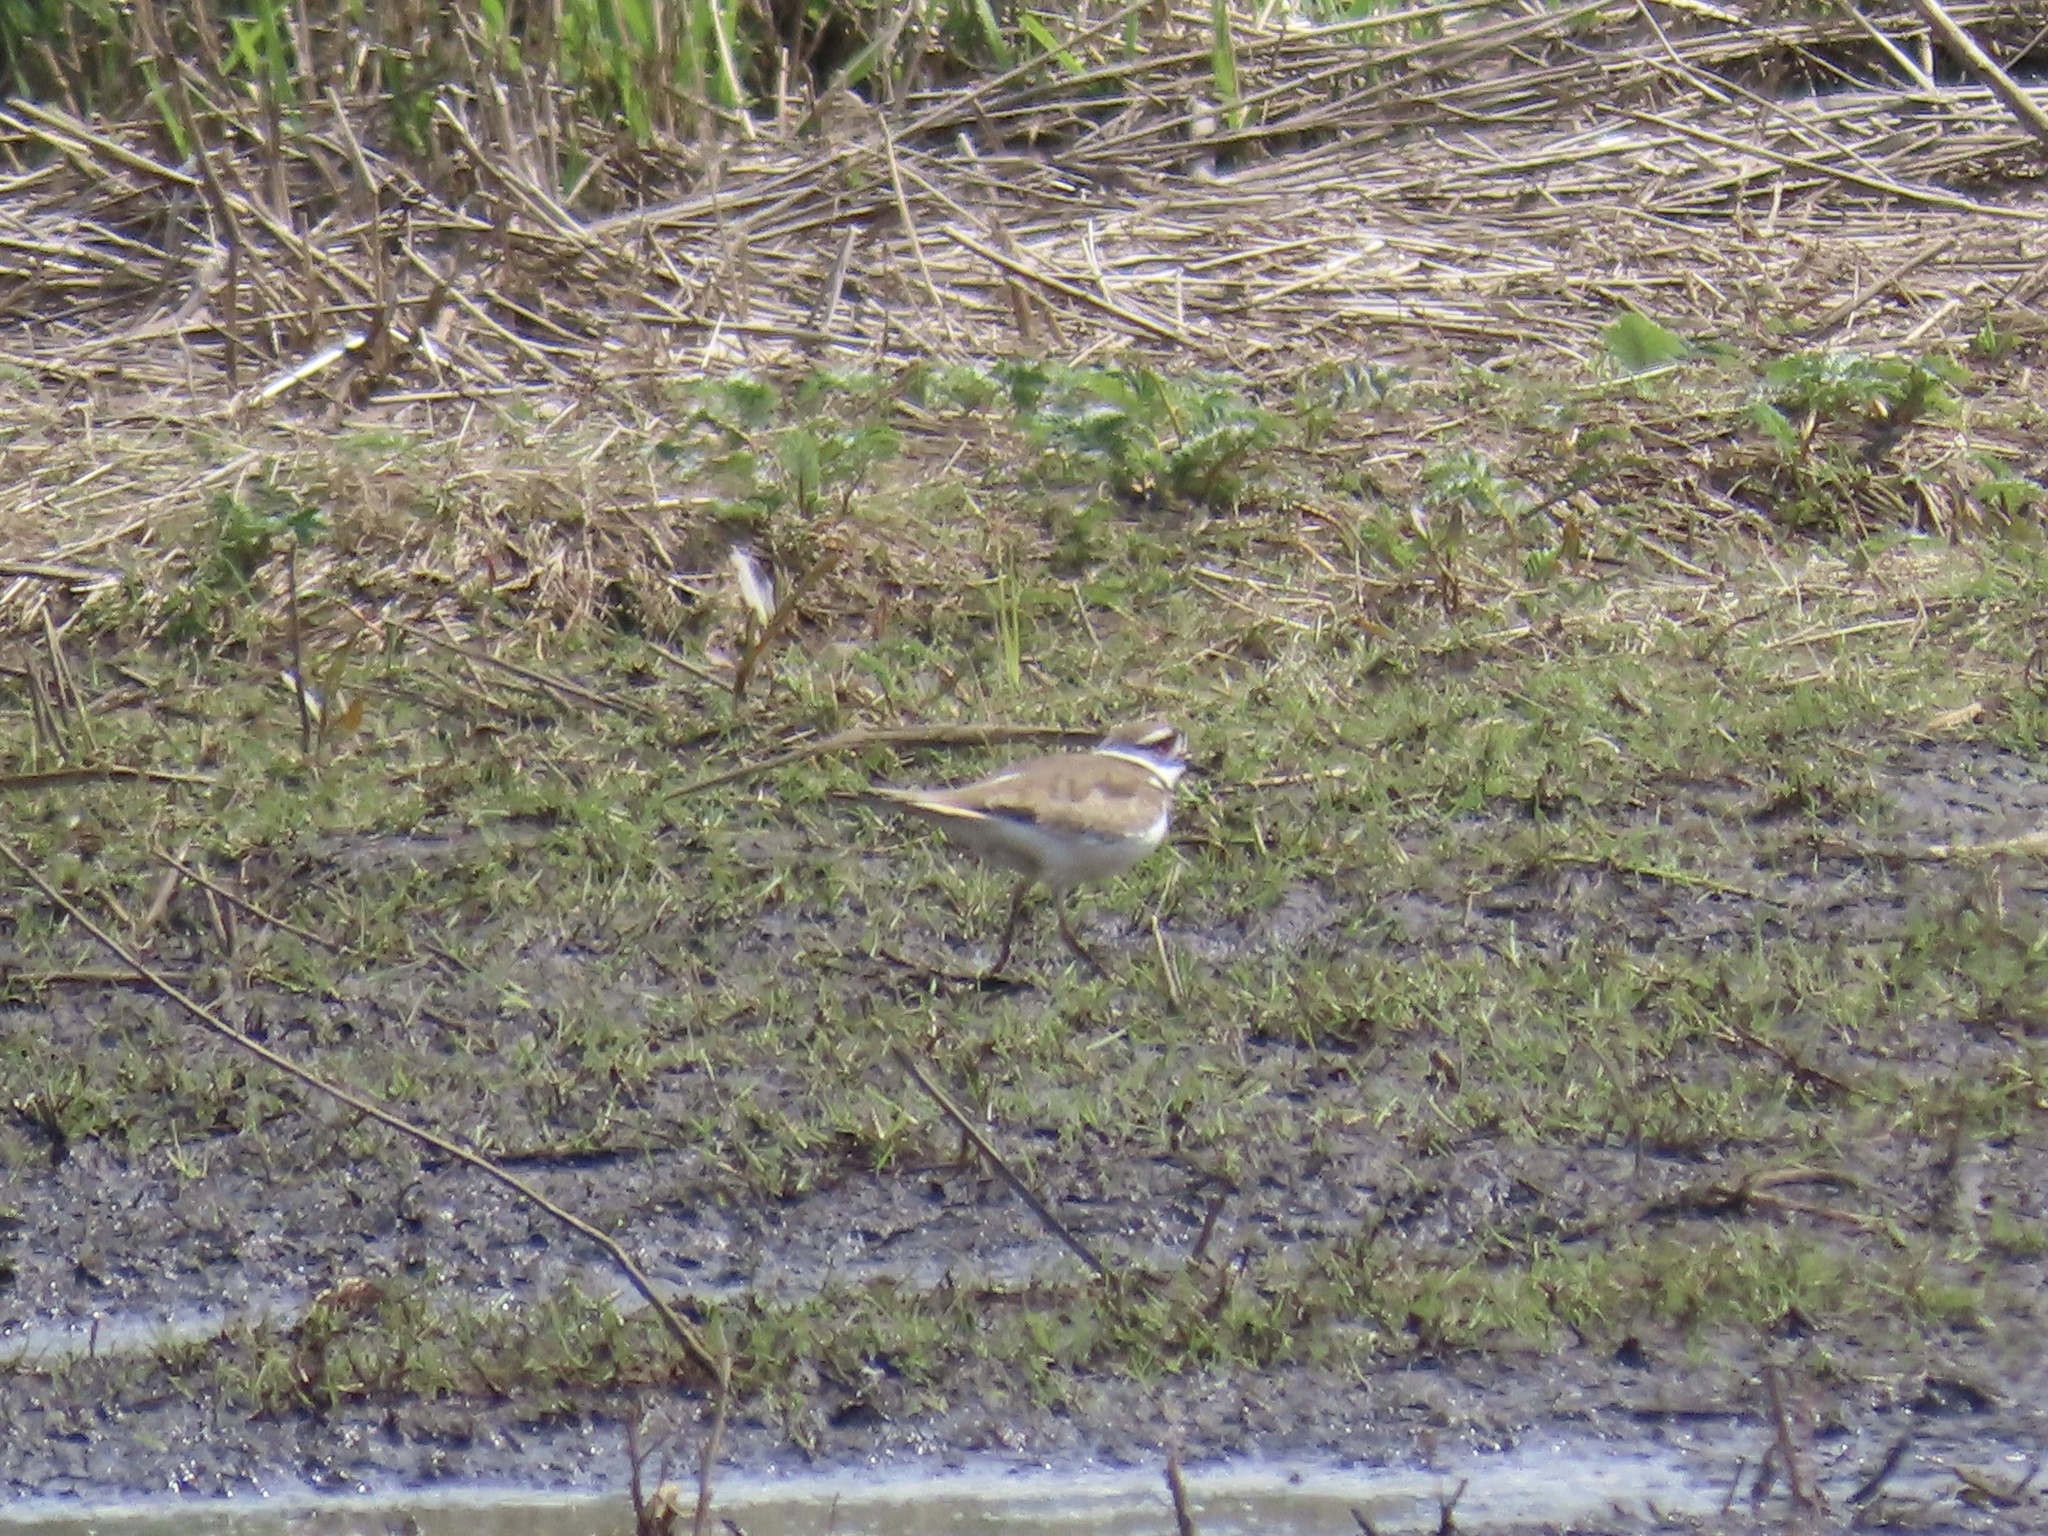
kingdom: Animalia
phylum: Chordata
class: Aves
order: Charadriiformes
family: Charadriidae
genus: Charadrius
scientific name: Charadrius vociferus
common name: Killdeer
